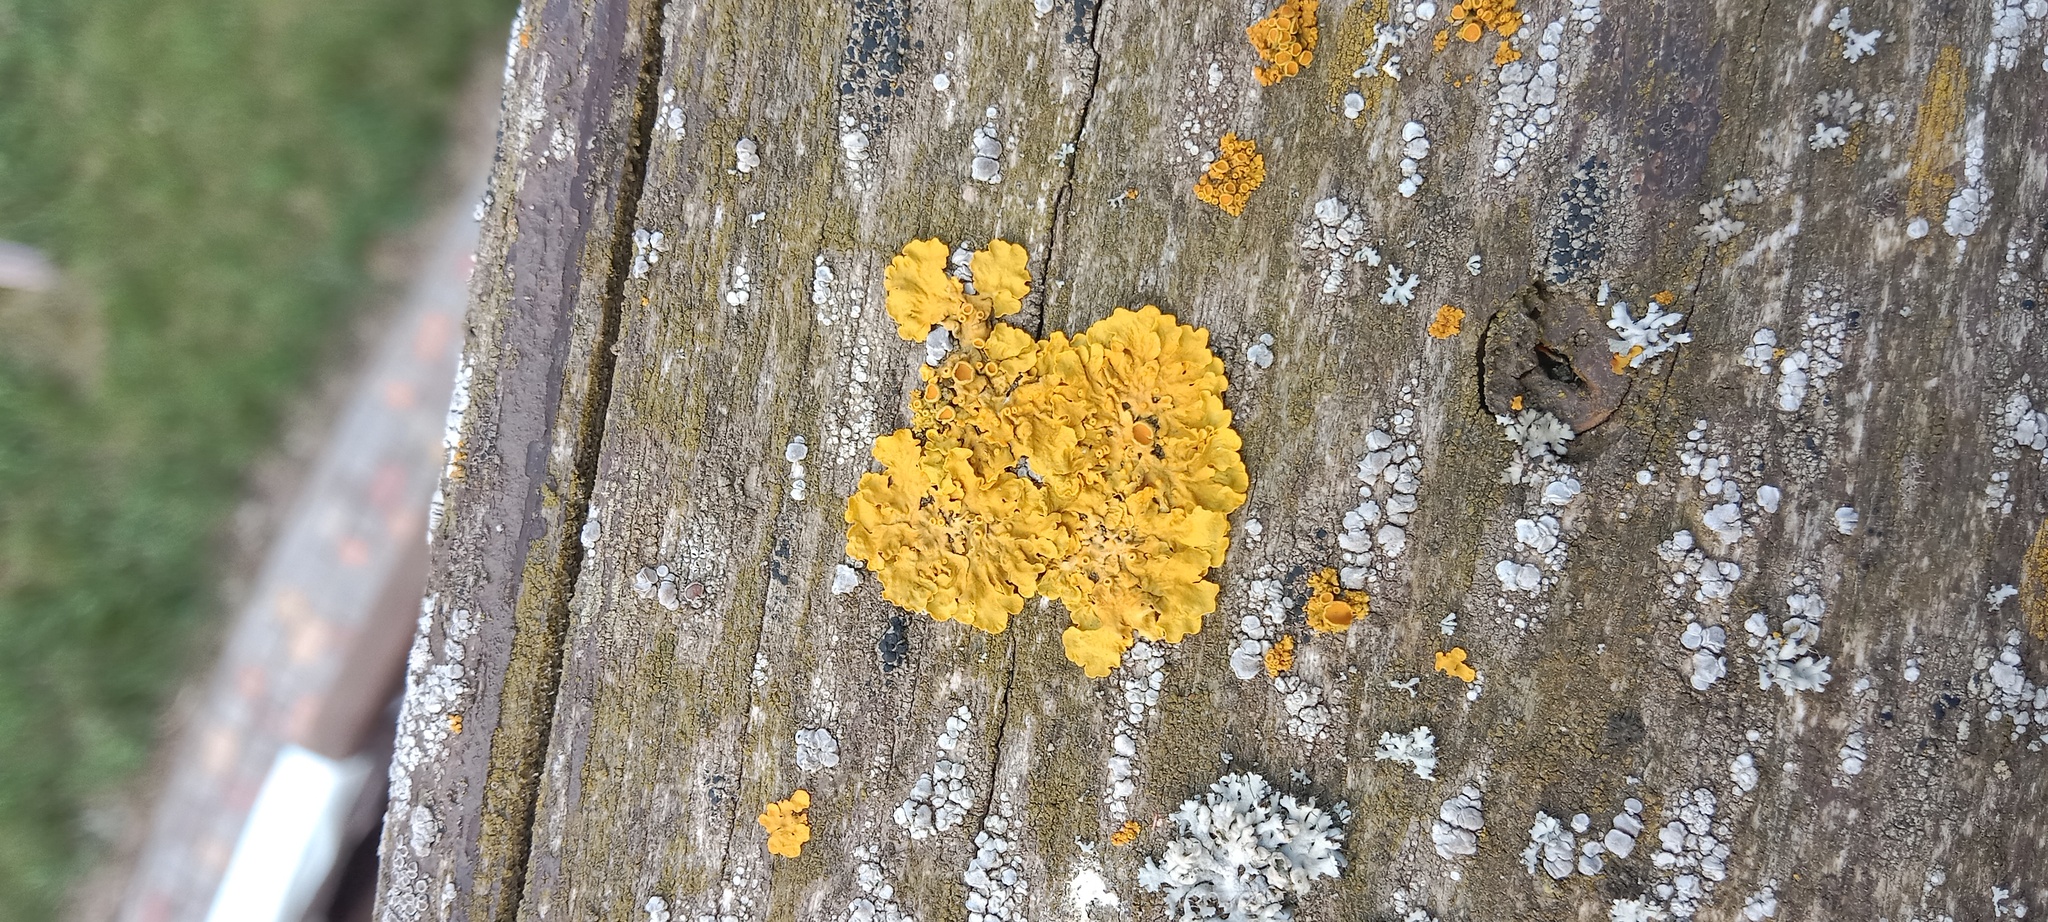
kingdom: Fungi
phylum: Ascomycota
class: Lecanoromycetes
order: Teloschistales
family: Teloschistaceae
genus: Xanthoria
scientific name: Xanthoria parietina
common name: Common orange lichen
